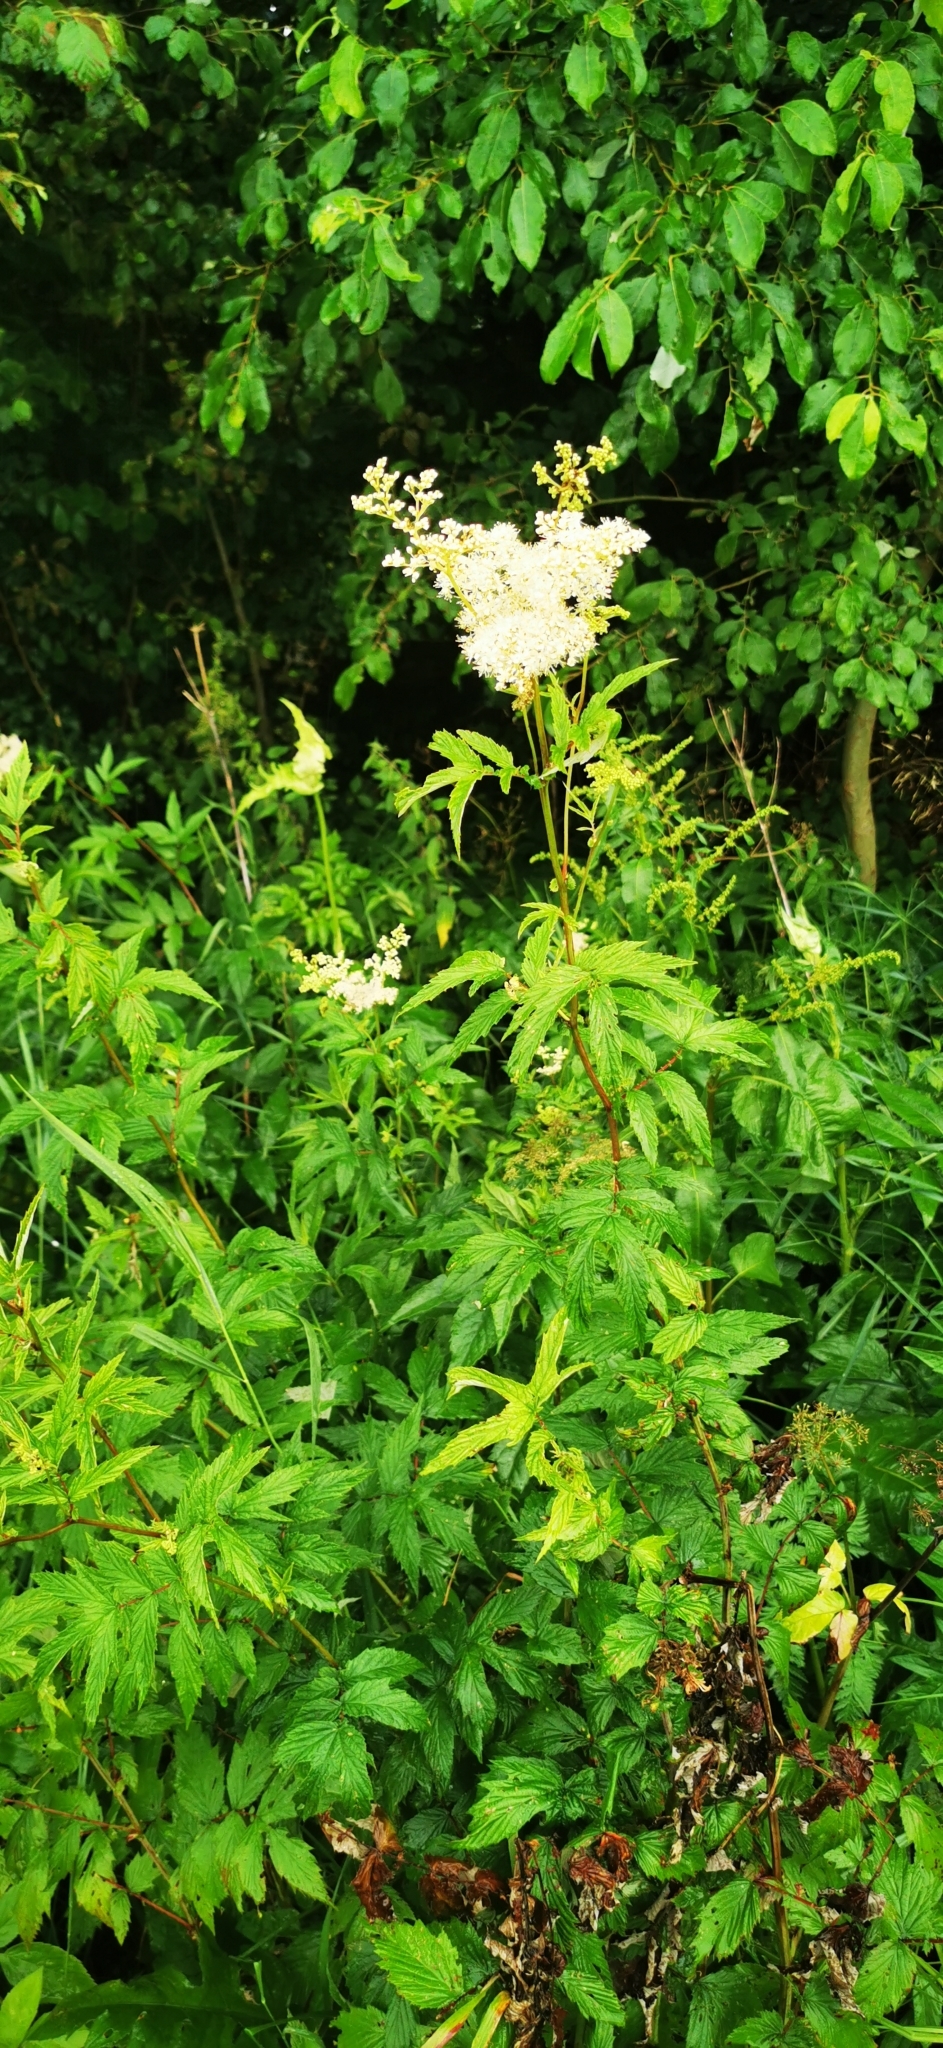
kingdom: Plantae
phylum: Tracheophyta
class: Magnoliopsida
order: Rosales
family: Rosaceae
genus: Filipendula
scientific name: Filipendula ulmaria
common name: Meadowsweet
